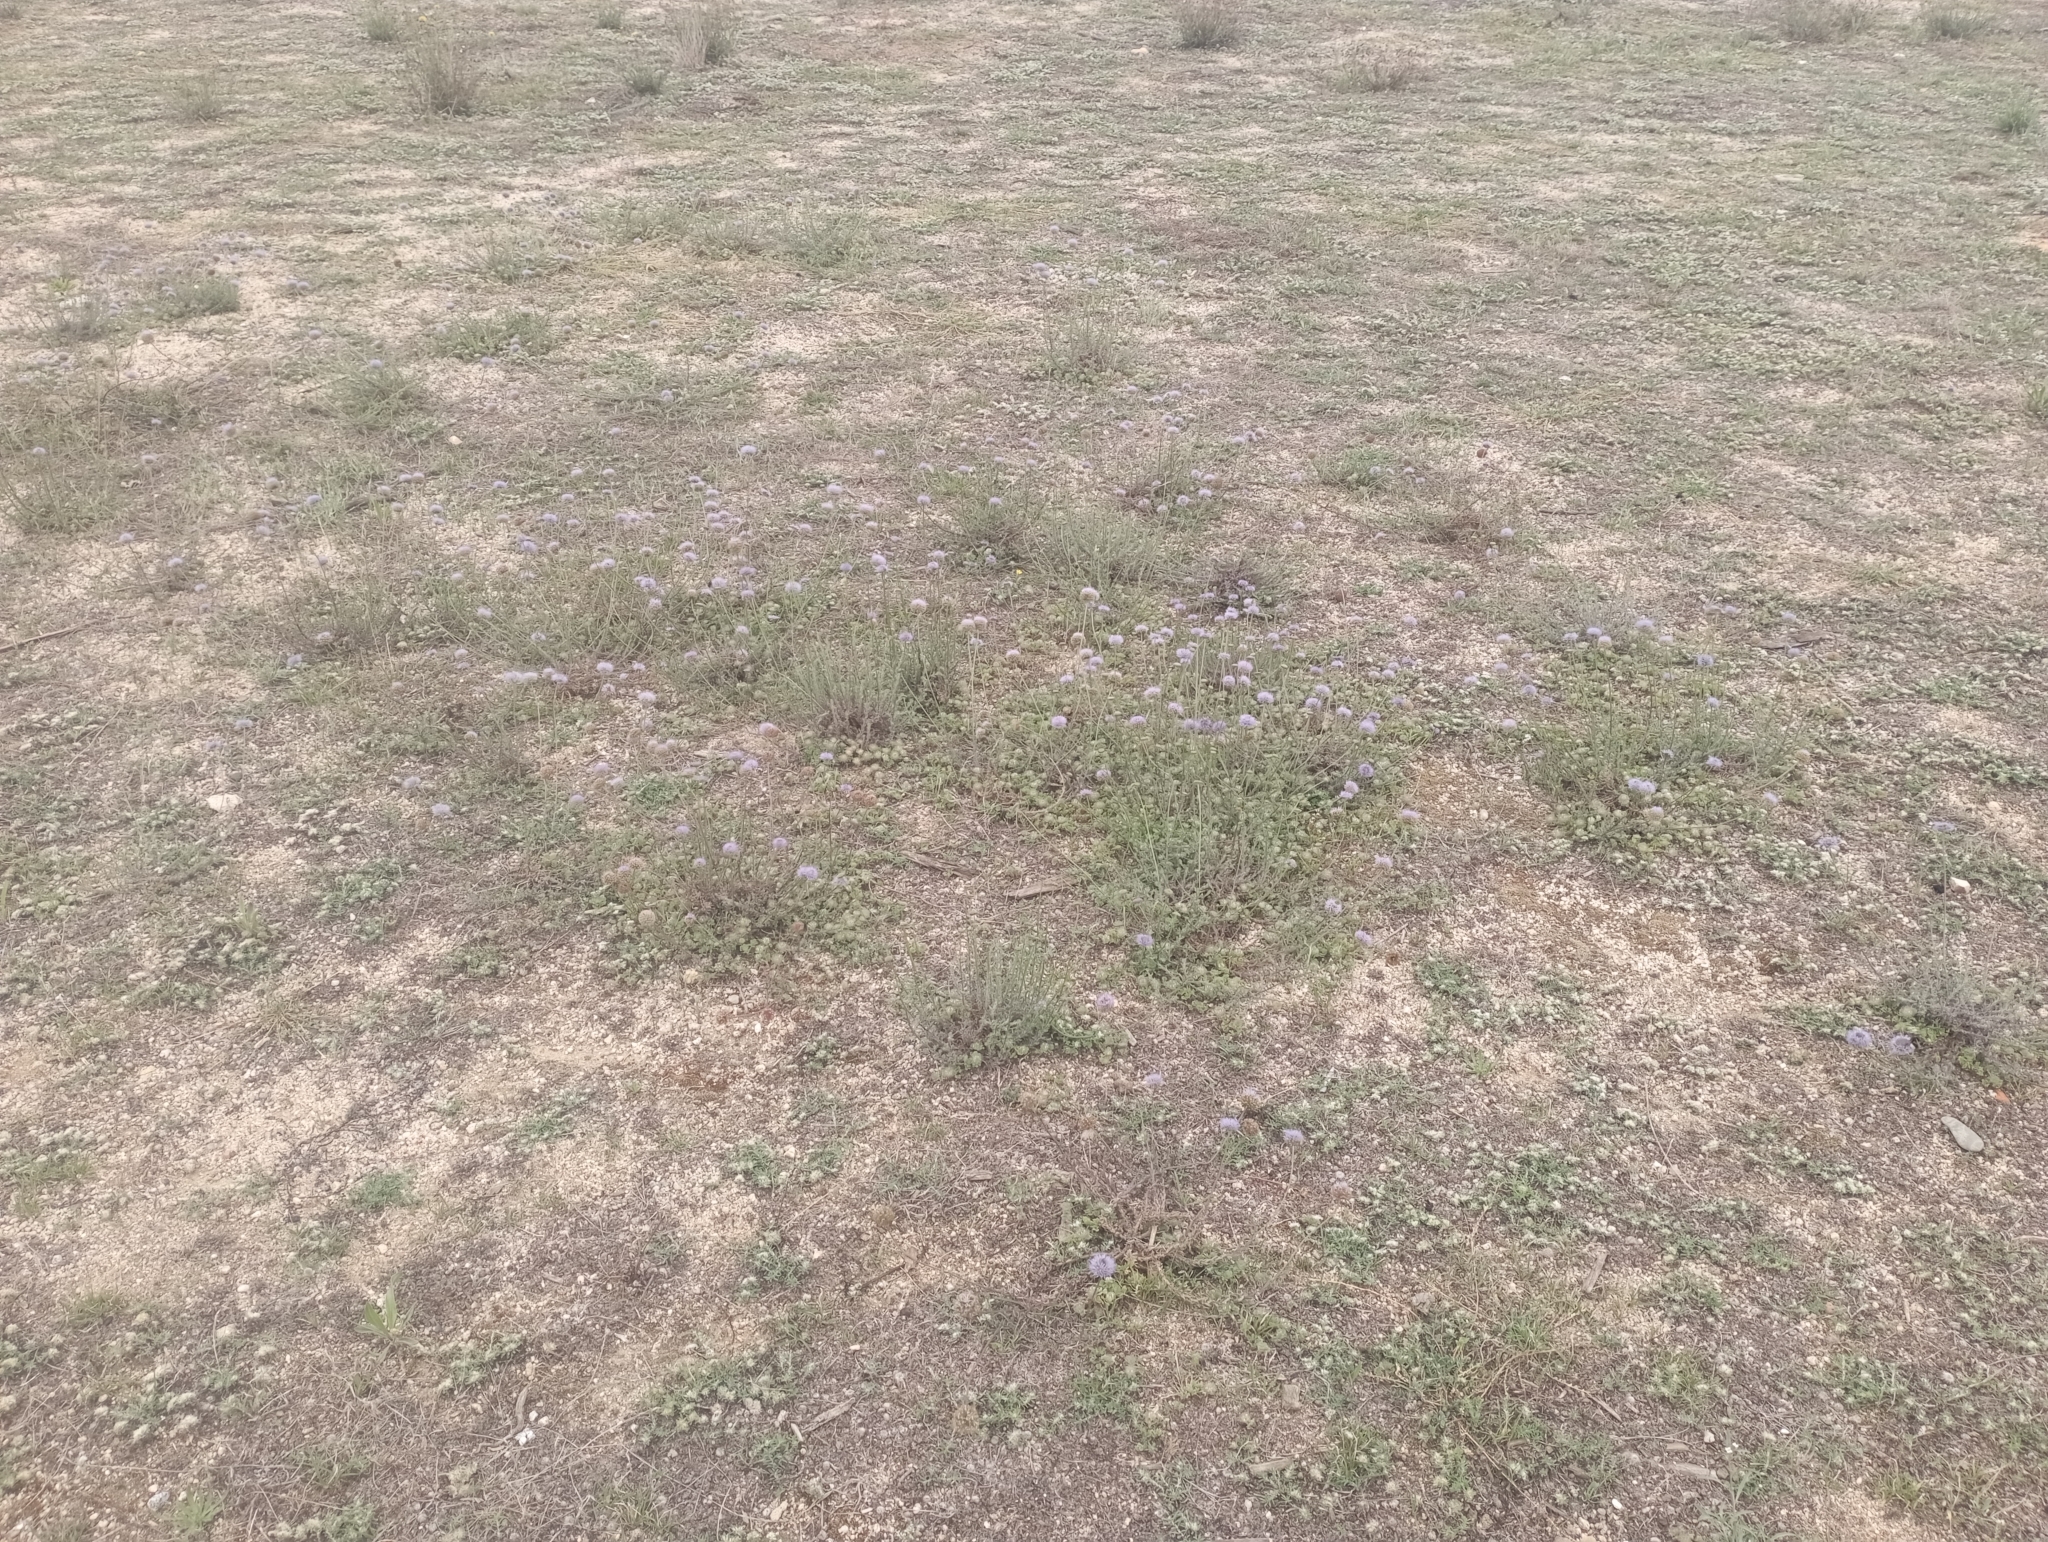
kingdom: Plantae
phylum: Tracheophyta
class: Magnoliopsida
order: Asterales
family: Campanulaceae
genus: Jasione
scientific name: Jasione montana
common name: Sheep's-bit
